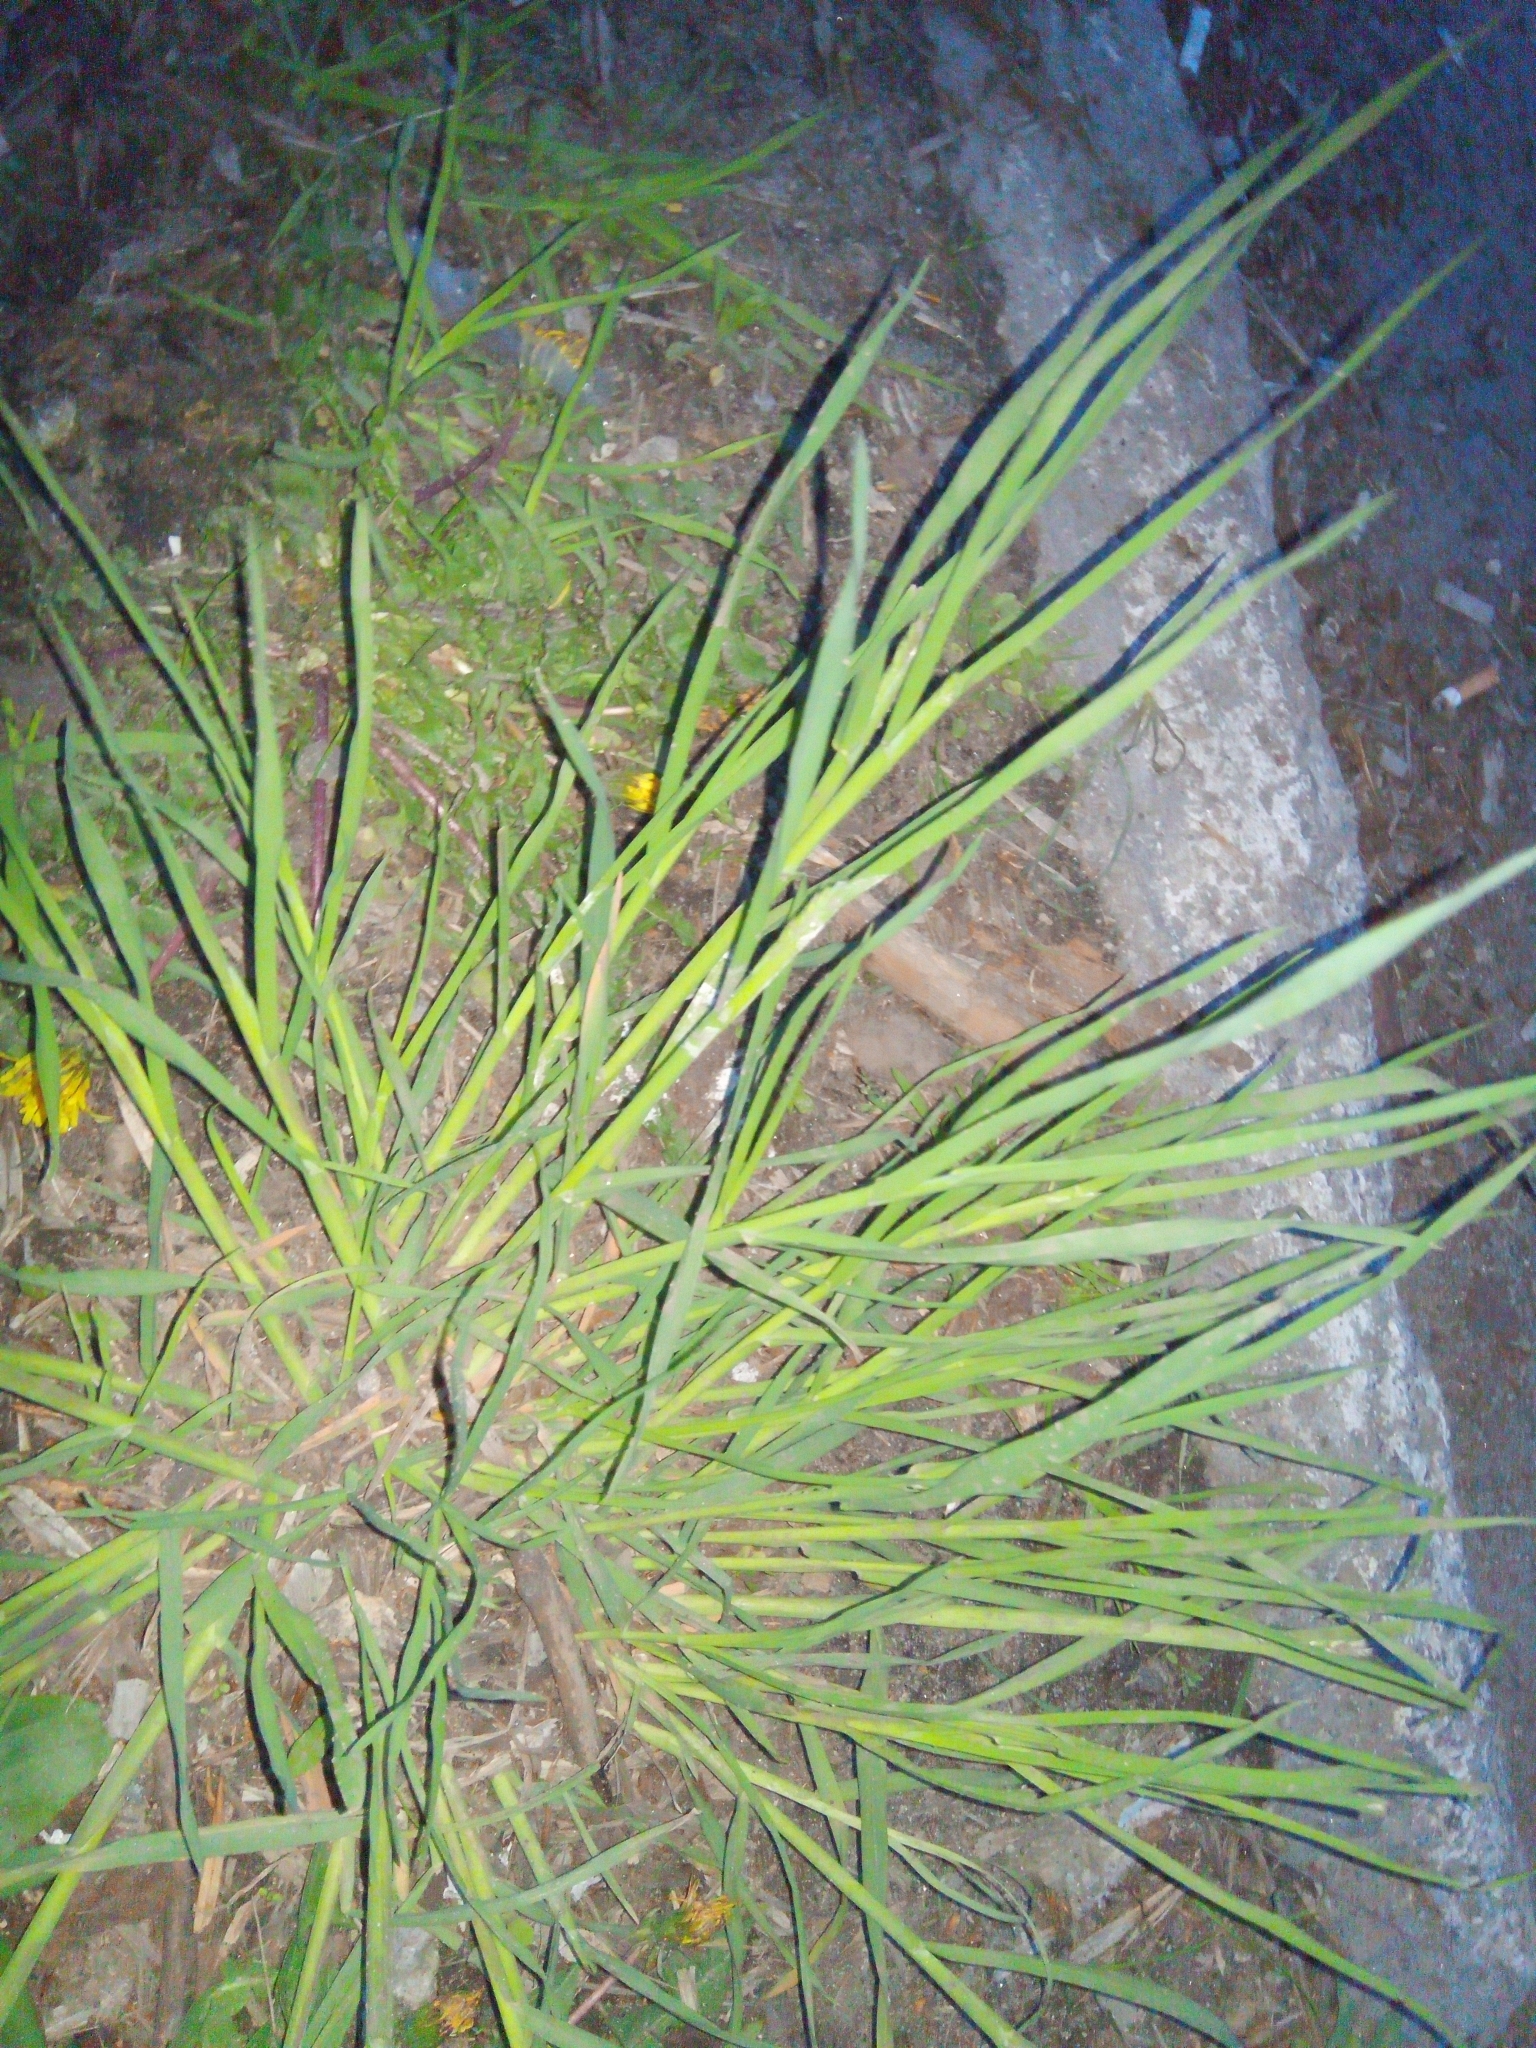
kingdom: Plantae
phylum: Tracheophyta
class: Liliopsida
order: Poales
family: Poaceae
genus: Dactylis
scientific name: Dactylis glomerata
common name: Orchardgrass
